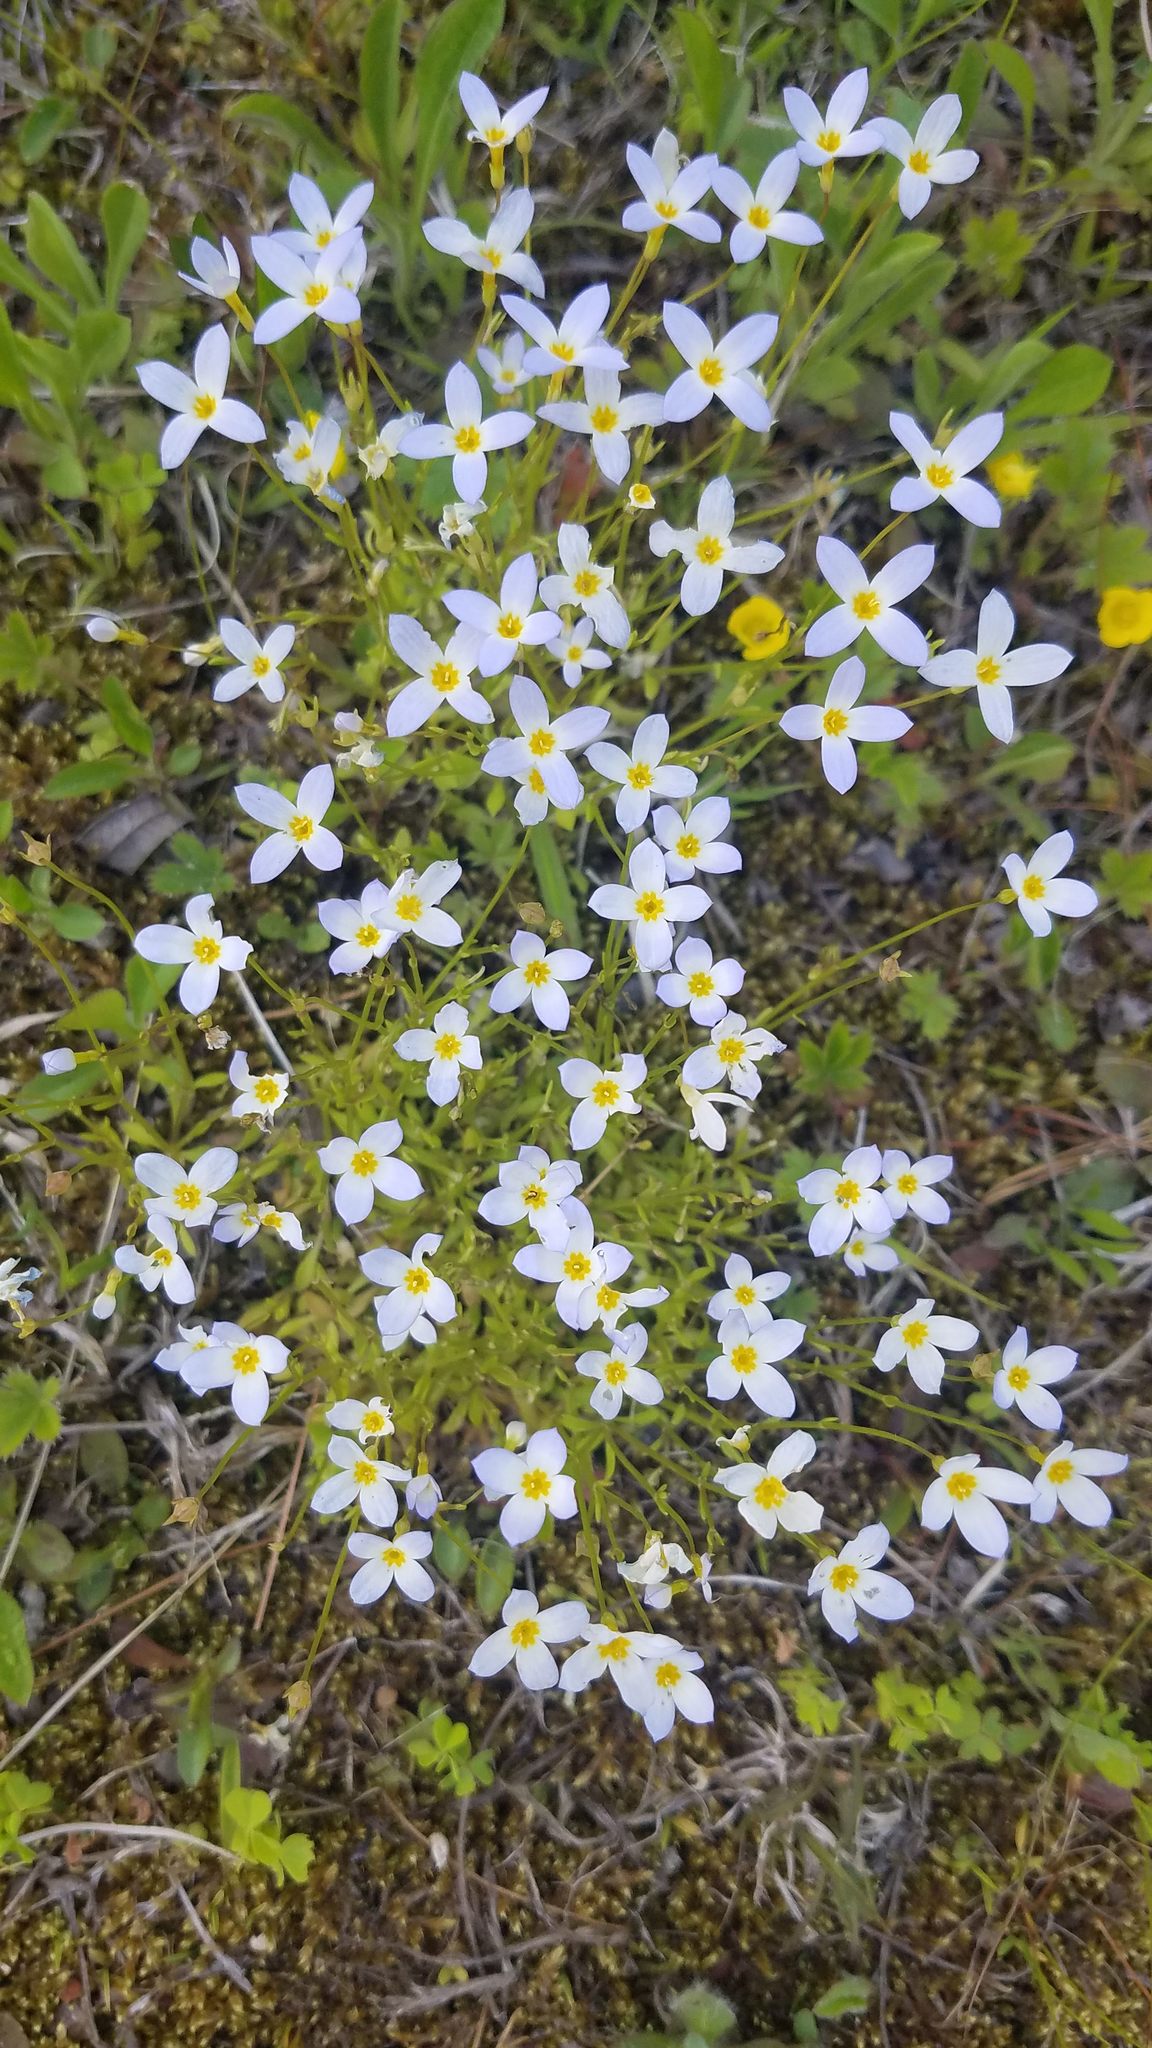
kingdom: Plantae
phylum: Tracheophyta
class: Magnoliopsida
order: Gentianales
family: Rubiaceae
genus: Houstonia
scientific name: Houstonia caerulea
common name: Bluets
